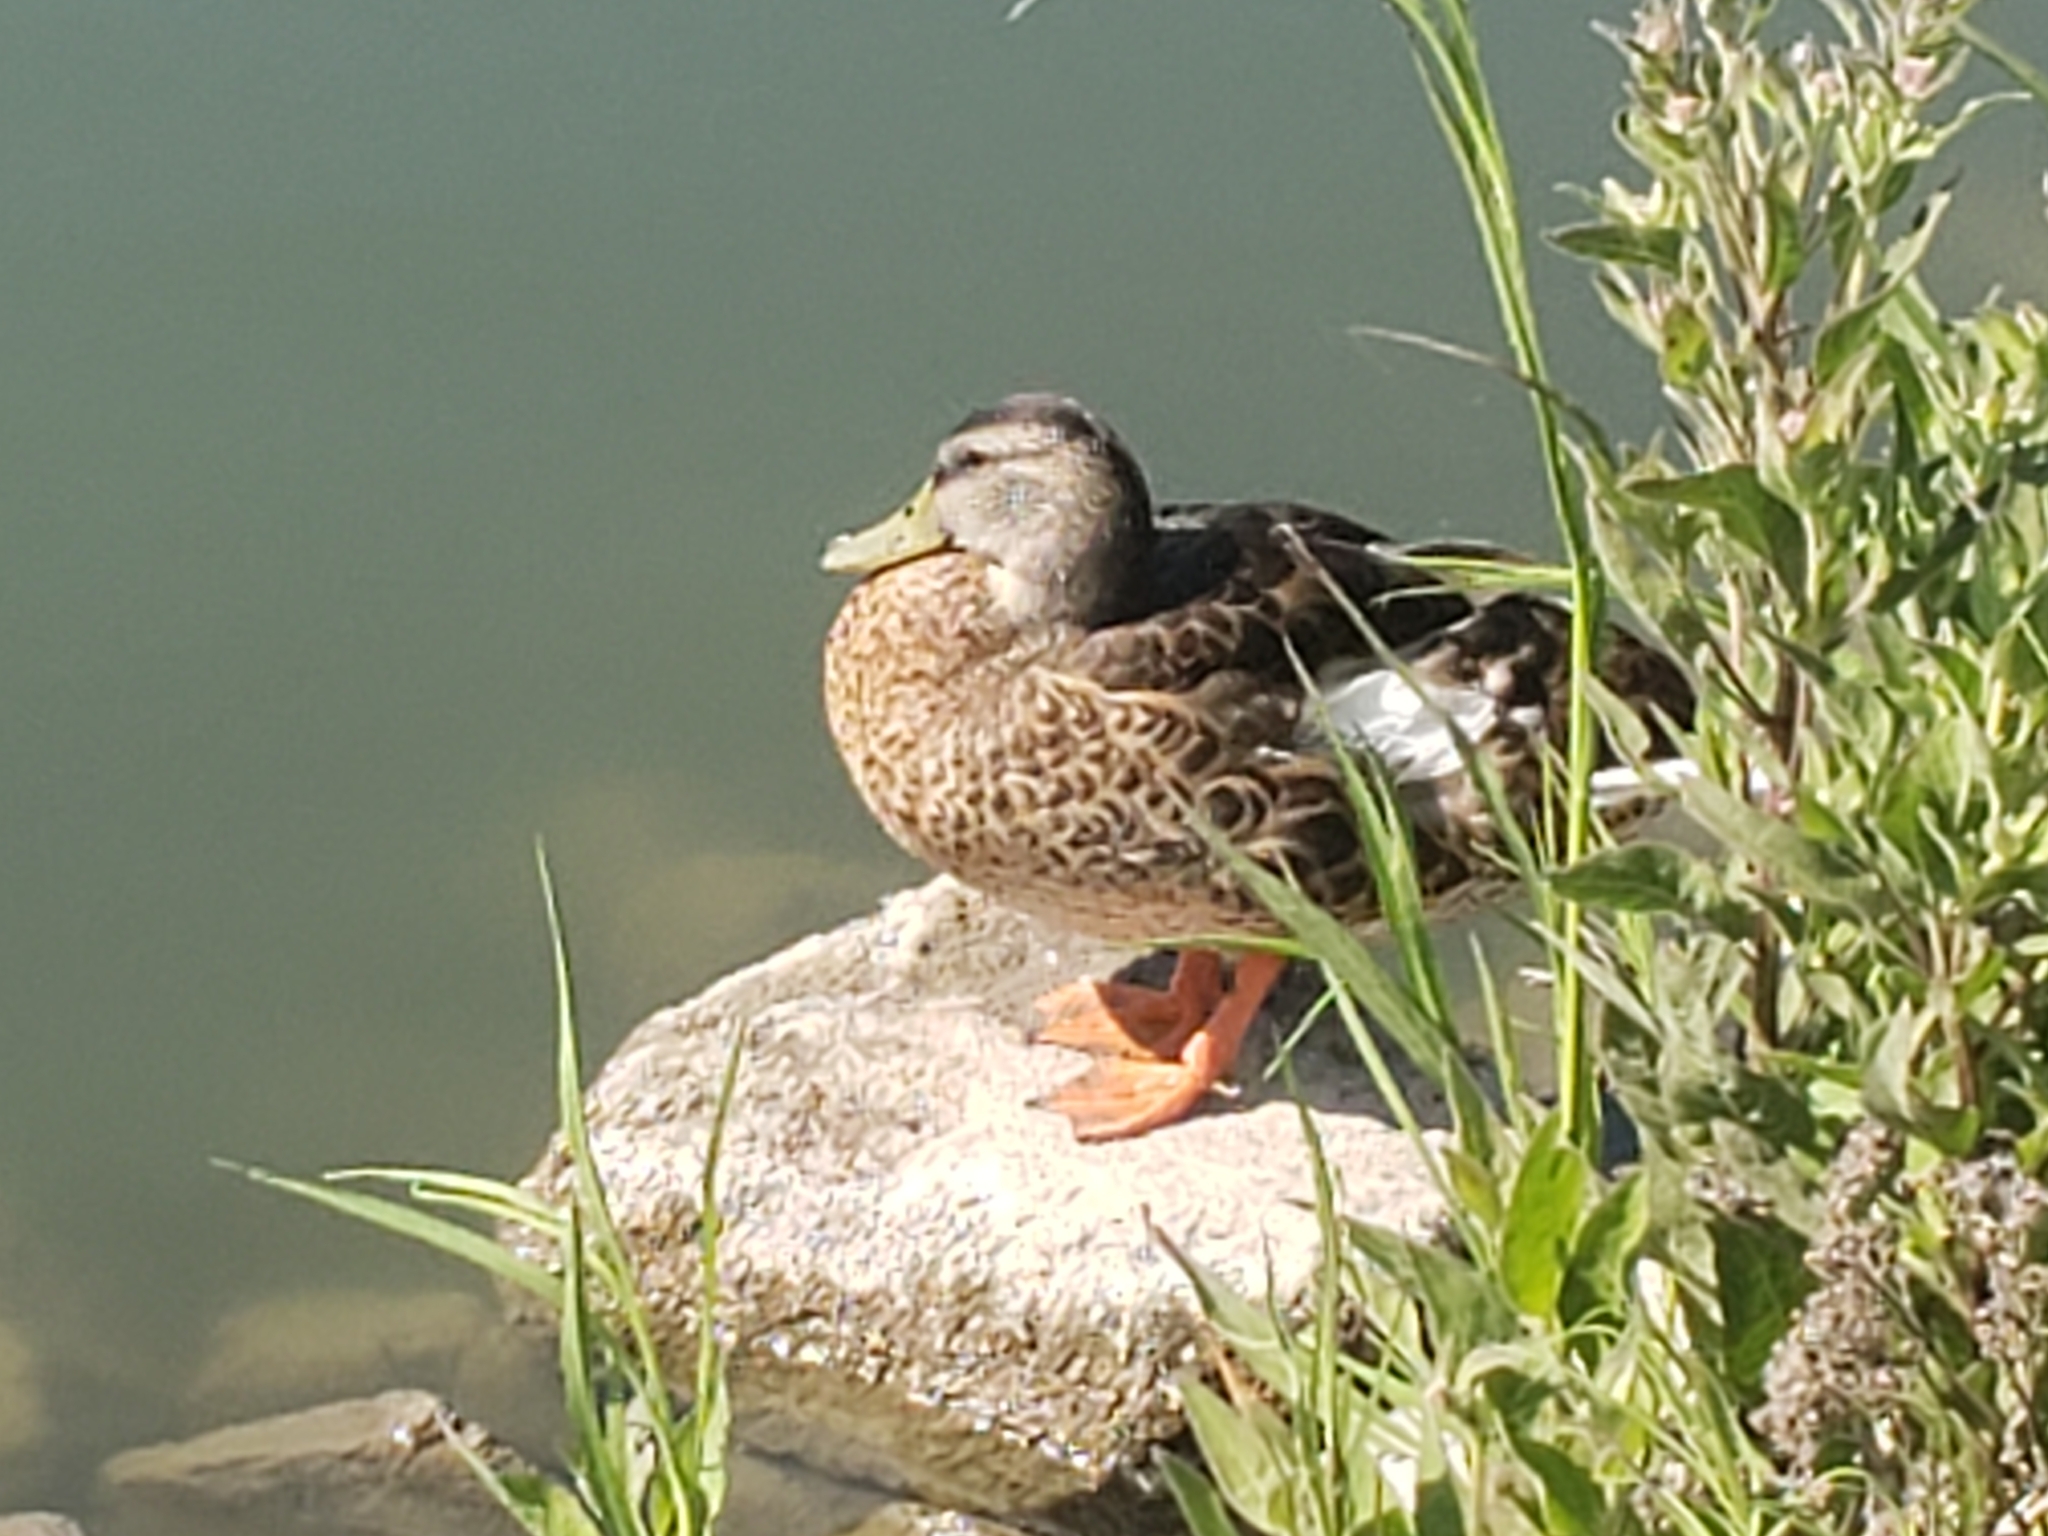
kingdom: Animalia
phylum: Chordata
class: Aves
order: Anseriformes
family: Anatidae
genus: Anas
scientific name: Anas platyrhynchos
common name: Mallard
